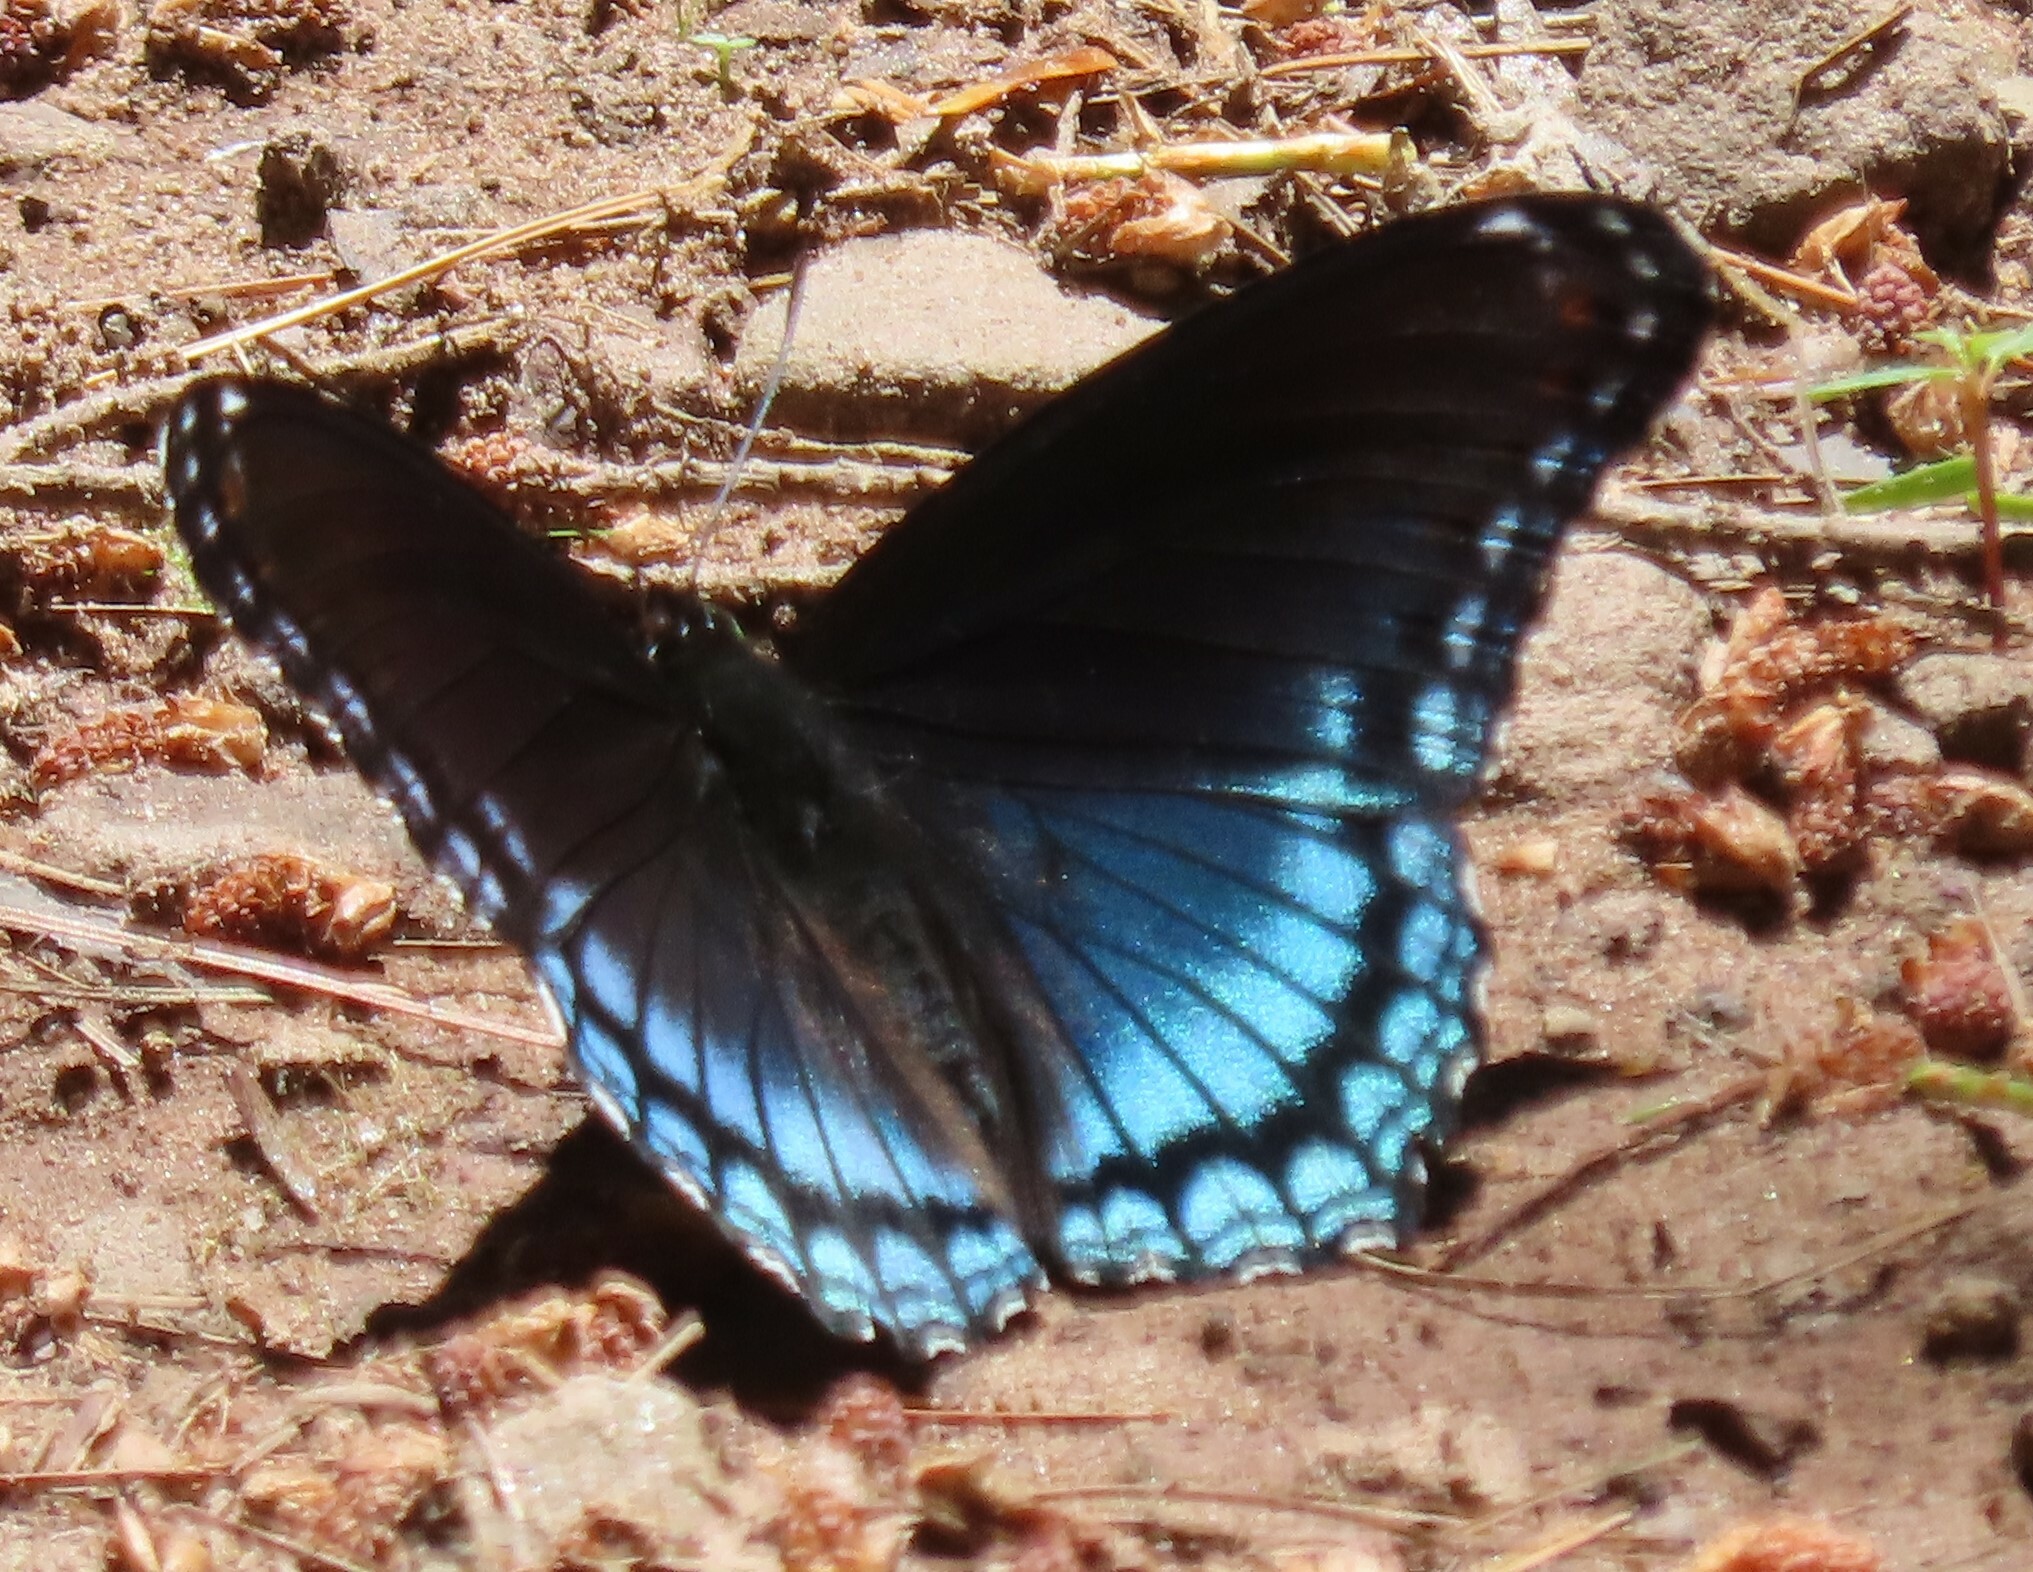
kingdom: Animalia
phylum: Arthropoda
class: Insecta
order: Lepidoptera
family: Nymphalidae
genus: Limenitis
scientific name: Limenitis astyanax
